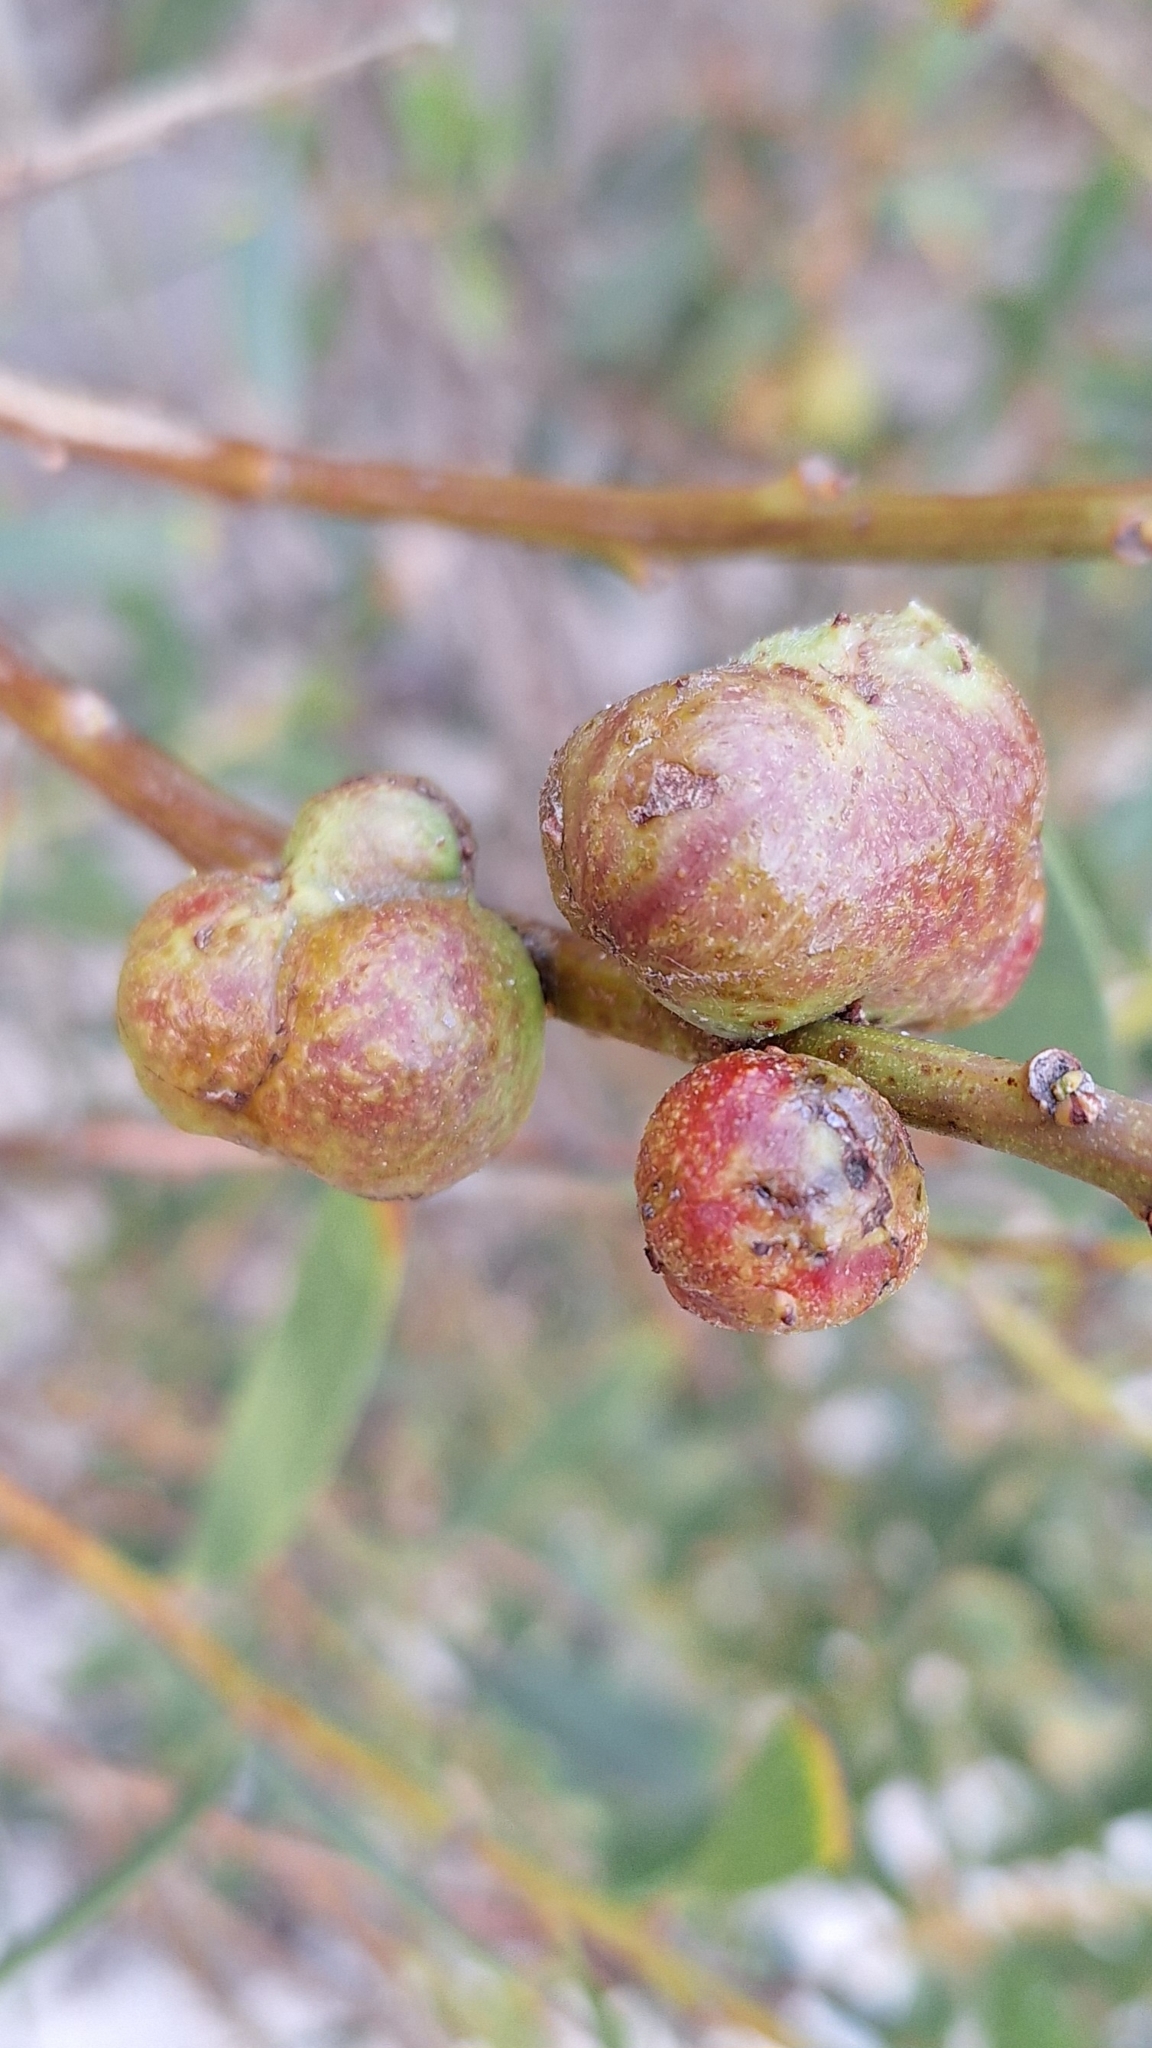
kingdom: Animalia
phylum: Arthropoda
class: Insecta
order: Hymenoptera
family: Pteromalidae
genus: Trichilogaster
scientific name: Trichilogaster acaciaelongifoliae
